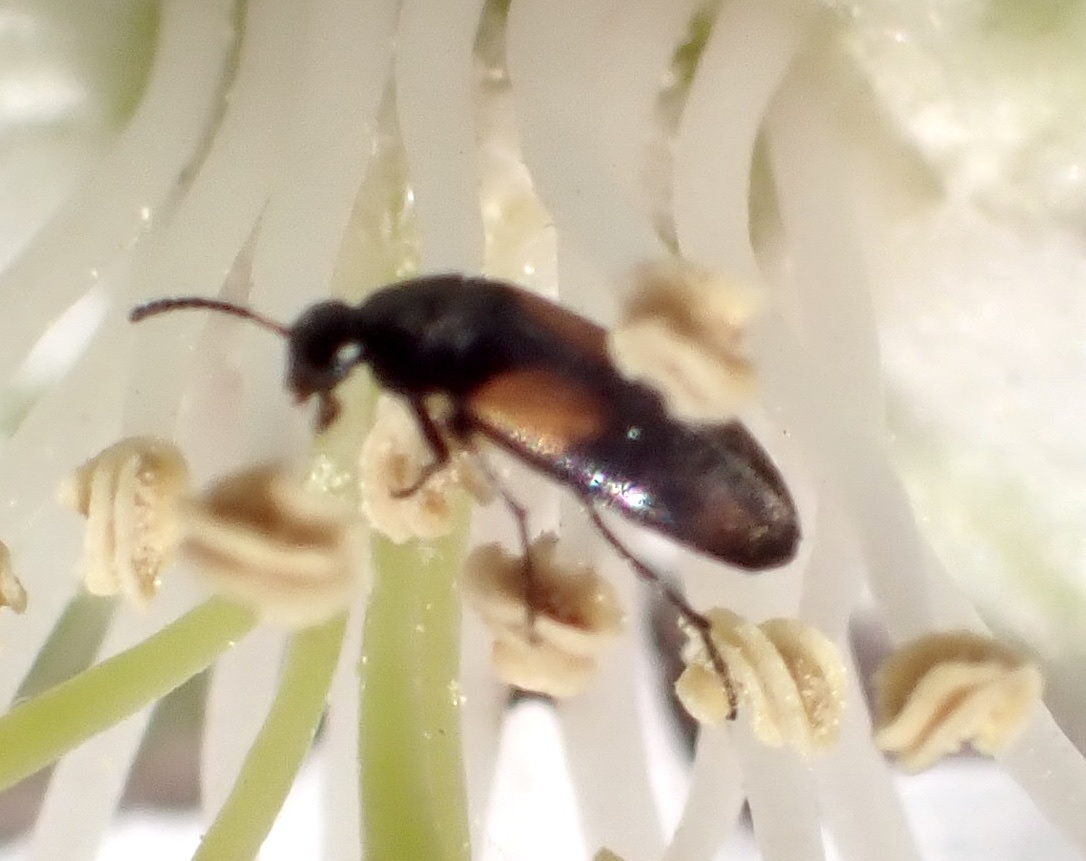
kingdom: Animalia
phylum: Arthropoda
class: Insecta
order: Coleoptera
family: Scraptiidae
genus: Anaspis
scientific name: Anaspis fasciata
